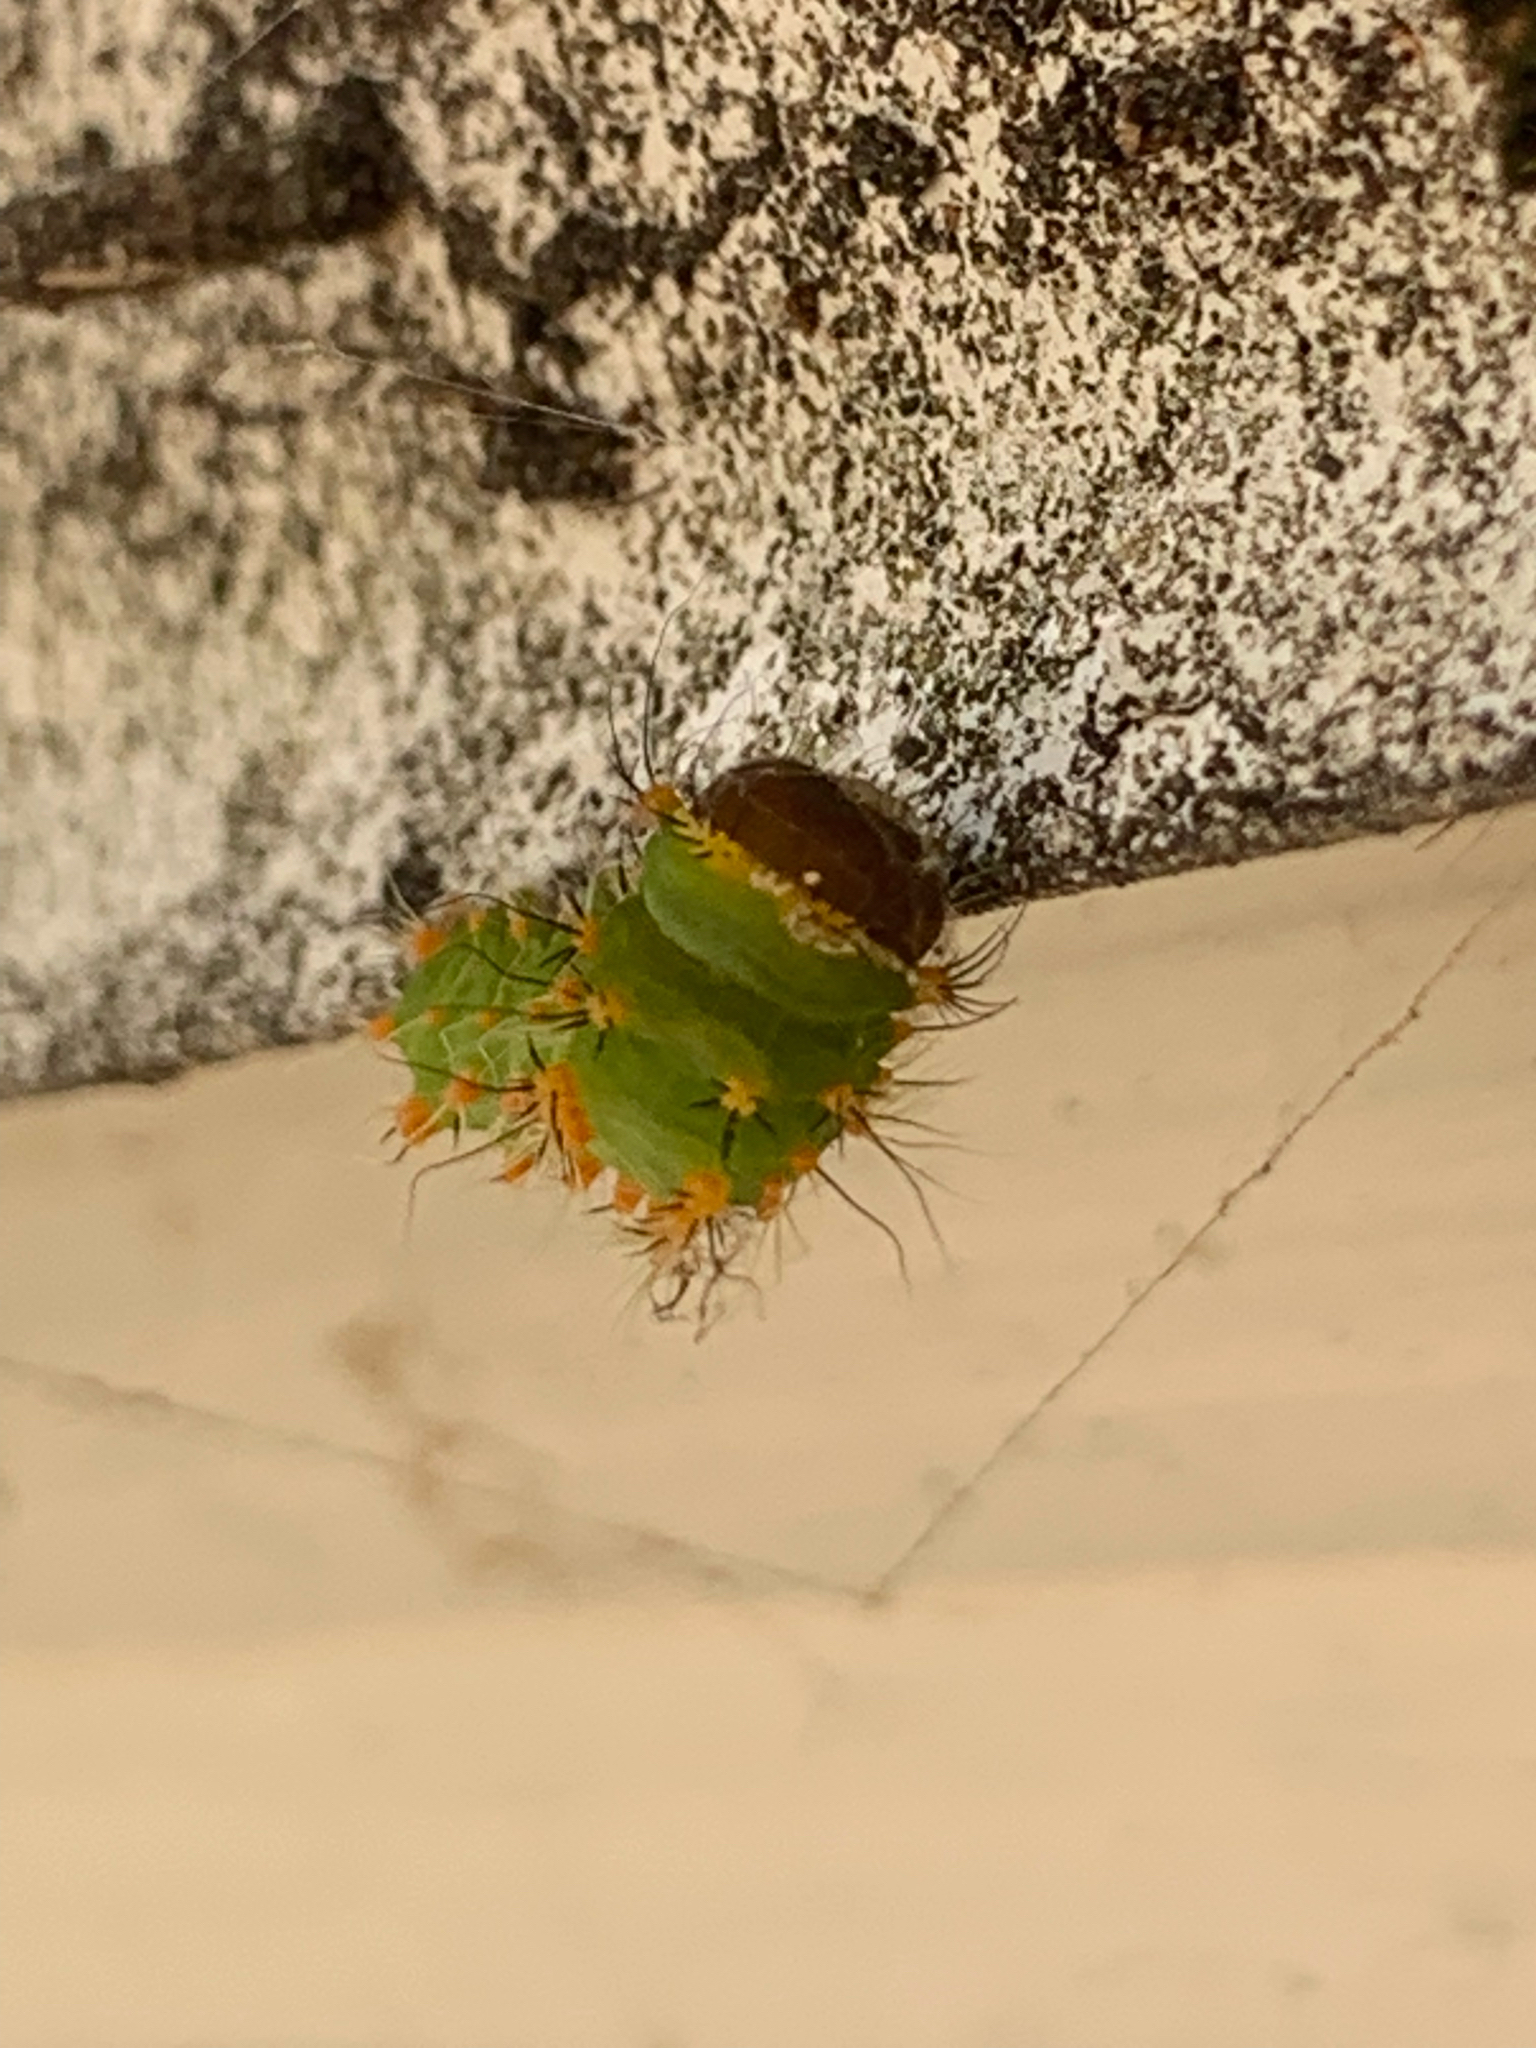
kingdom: Animalia
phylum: Arthropoda
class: Insecta
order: Lepidoptera
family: Saturniidae
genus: Antheraea
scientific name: Antheraea polyphemus
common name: Polyphemus moth
